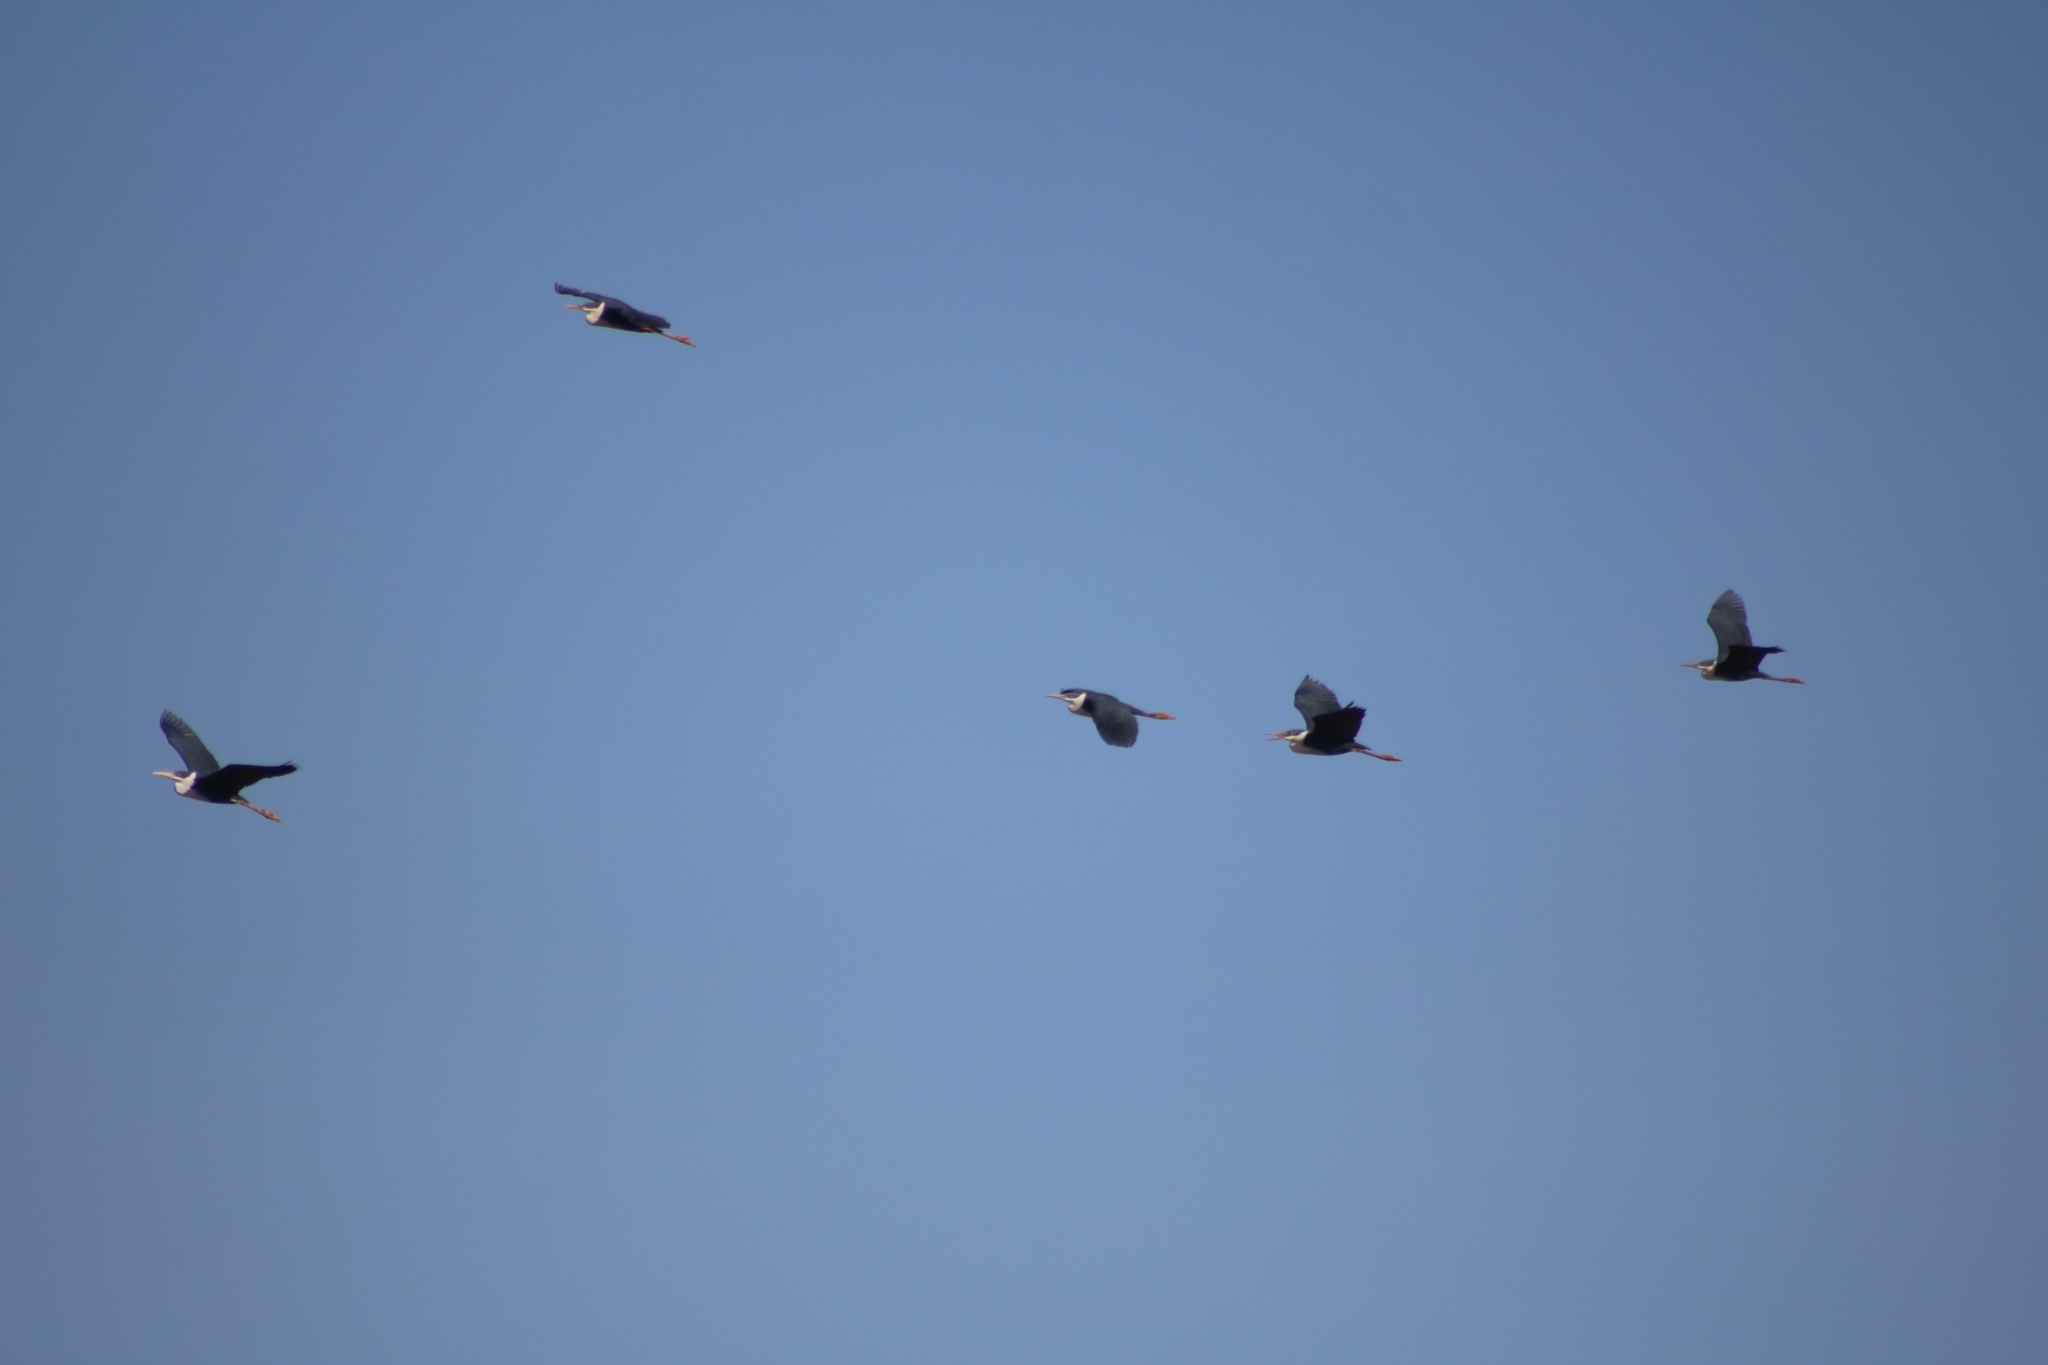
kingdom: Animalia
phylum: Chordata
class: Aves
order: Pelecaniformes
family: Ardeidae
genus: Egretta
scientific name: Egretta picata
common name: Pied heron
